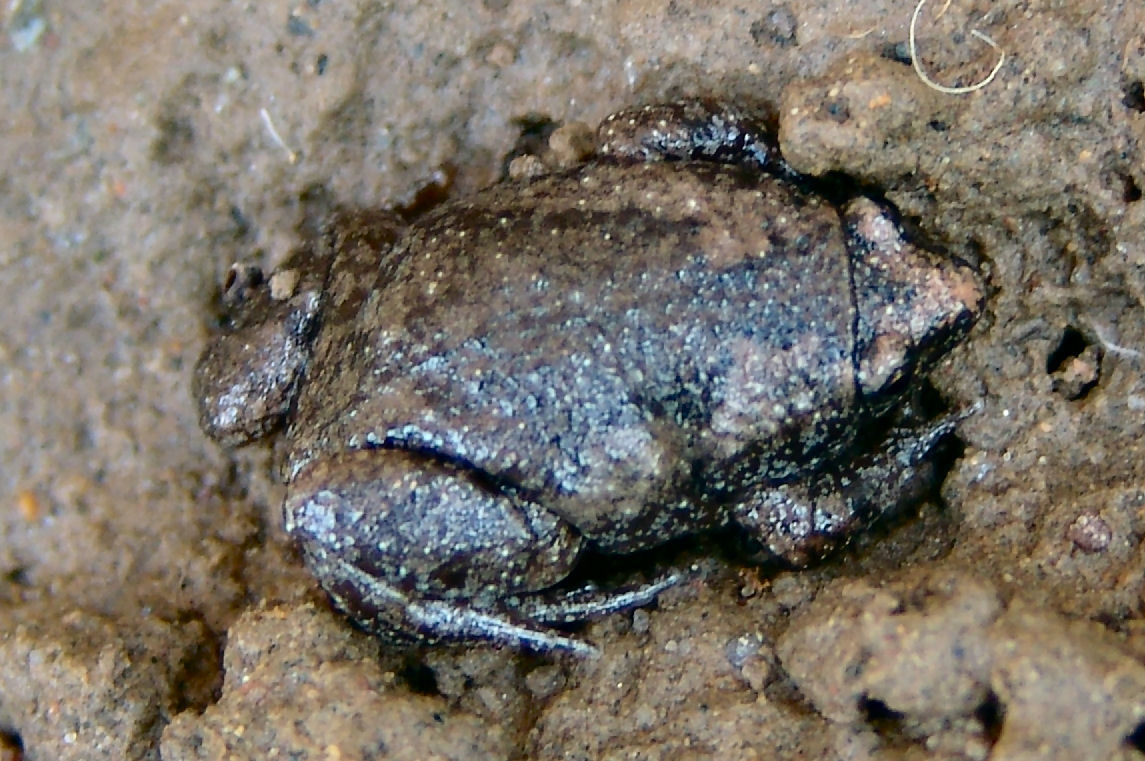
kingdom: Animalia
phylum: Chordata
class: Amphibia
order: Anura
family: Microhylidae
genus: Gastrophryne
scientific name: Gastrophryne carolinensis
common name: Eastern narrowmouth toad
